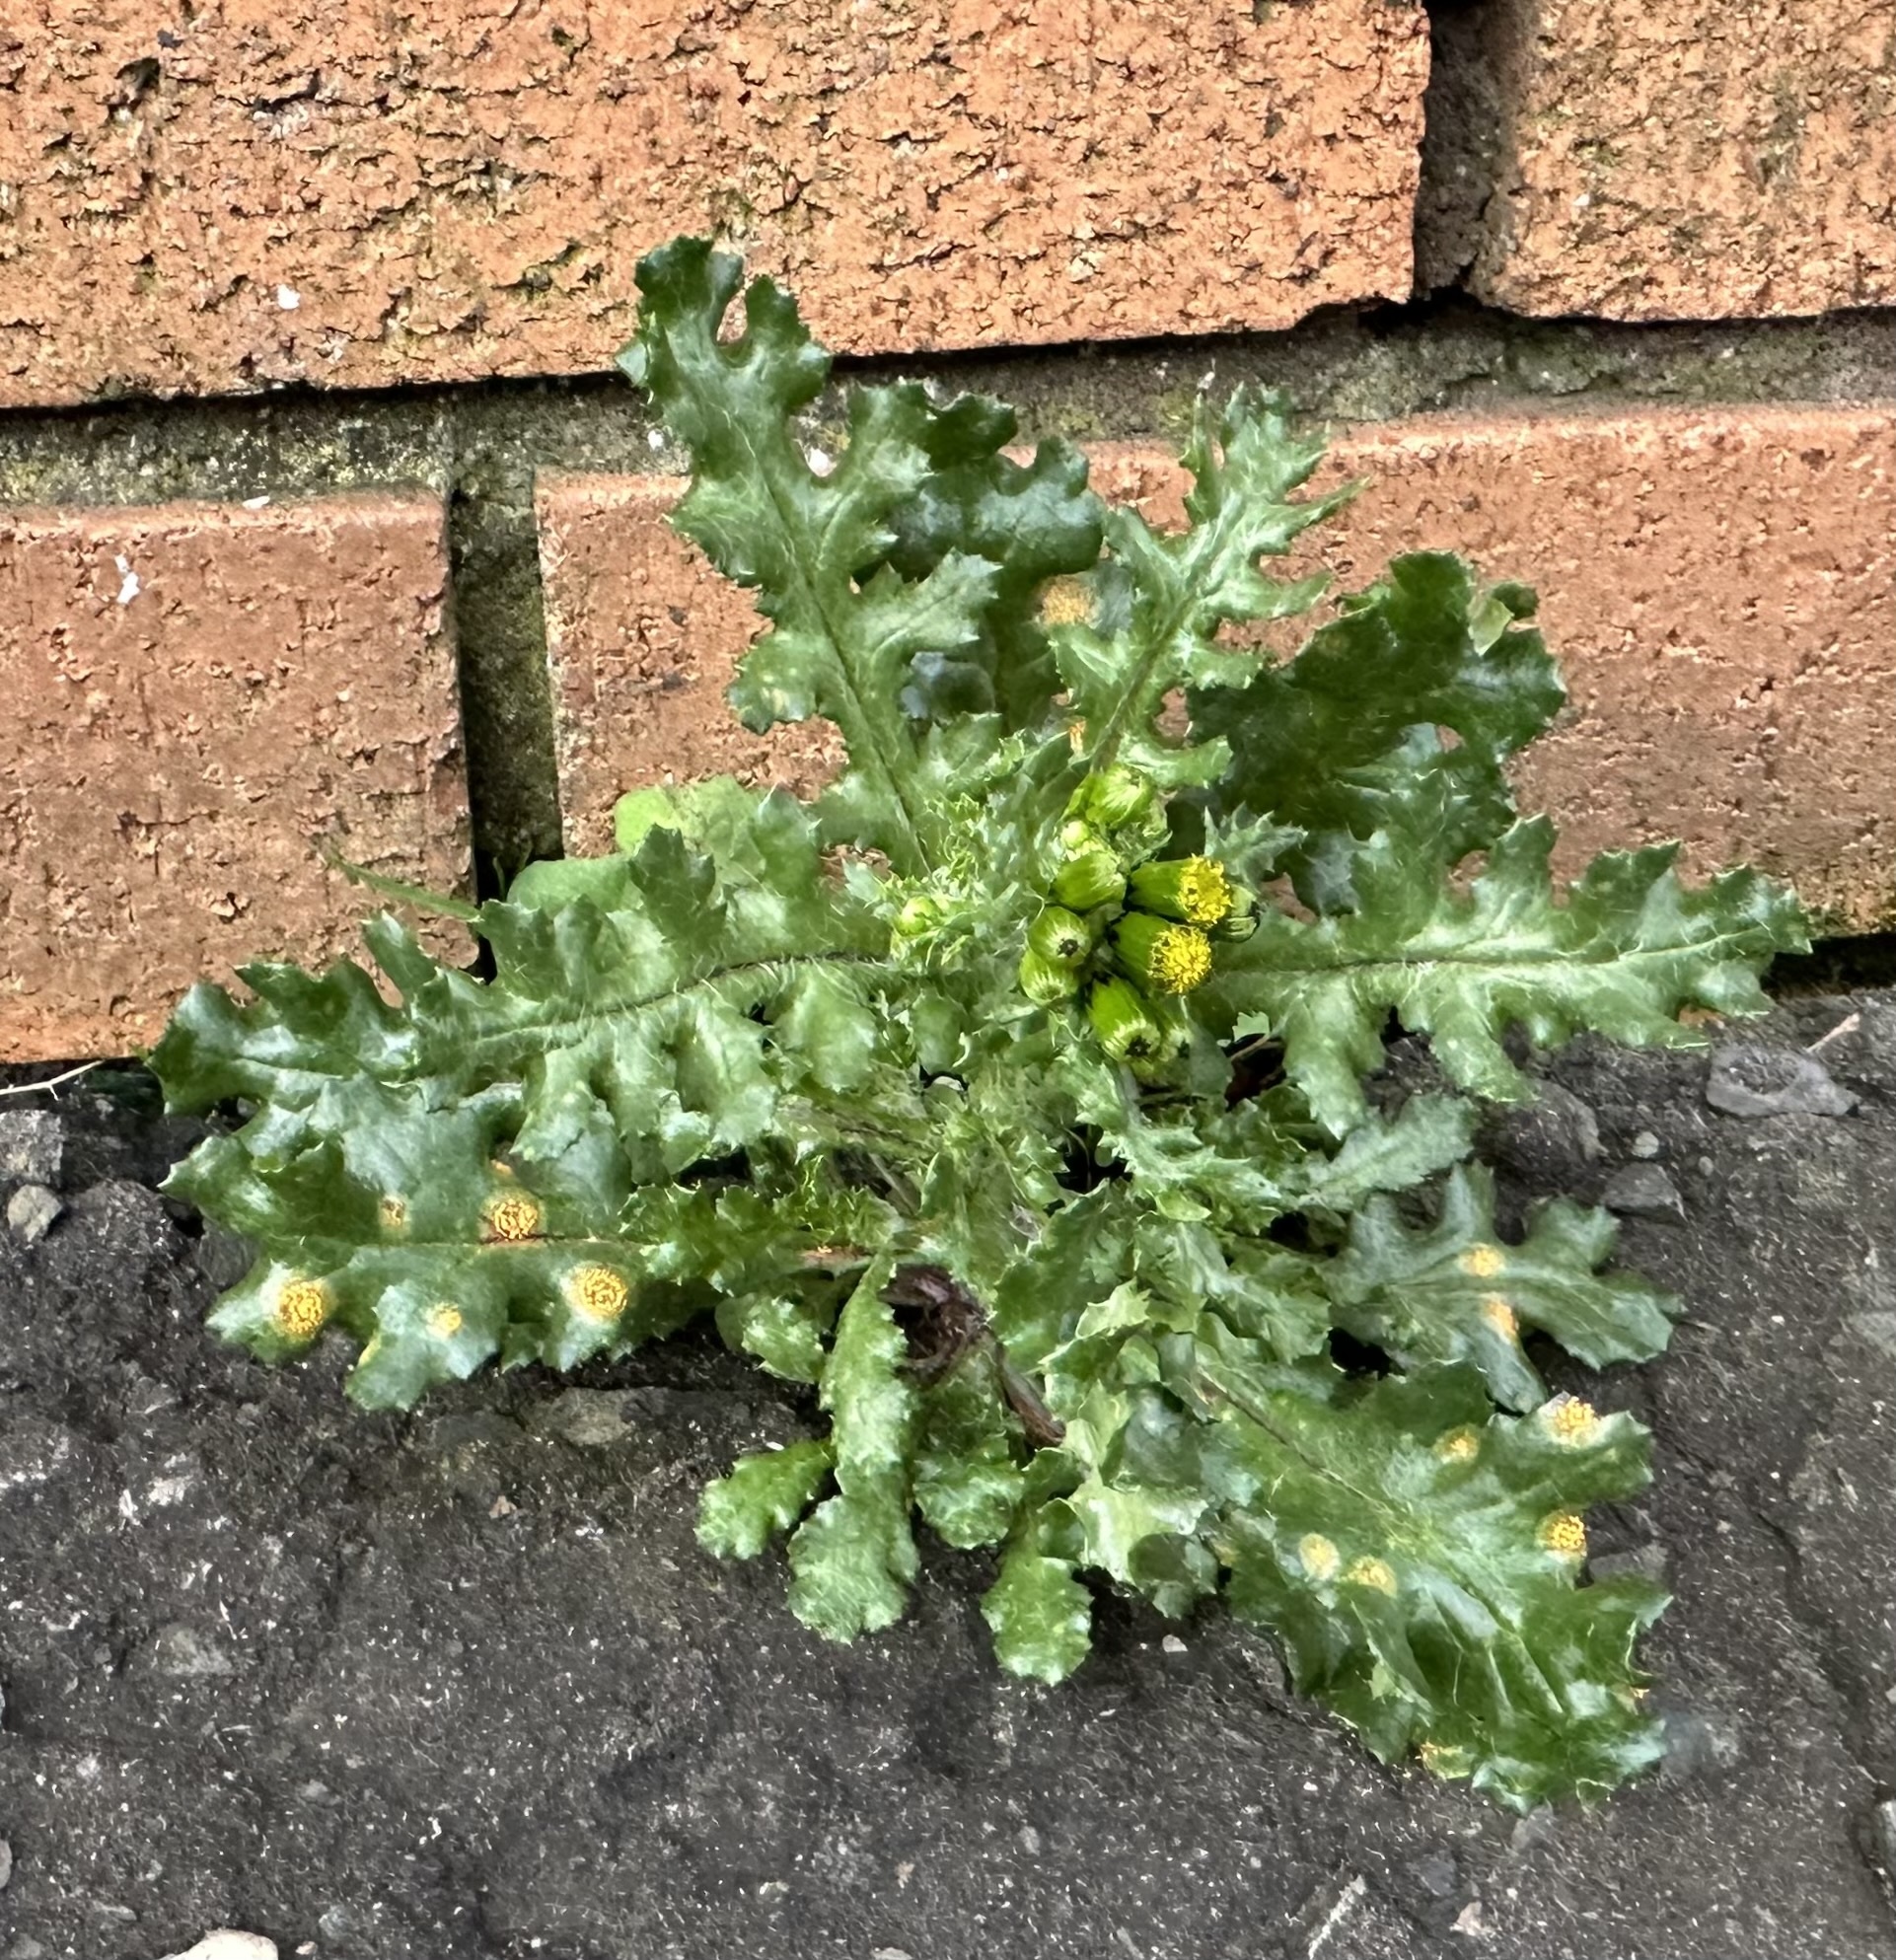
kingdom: Plantae
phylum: Tracheophyta
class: Magnoliopsida
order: Asterales
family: Asteraceae
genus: Senecio
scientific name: Senecio vulgaris
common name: Old-man-in-the-spring
